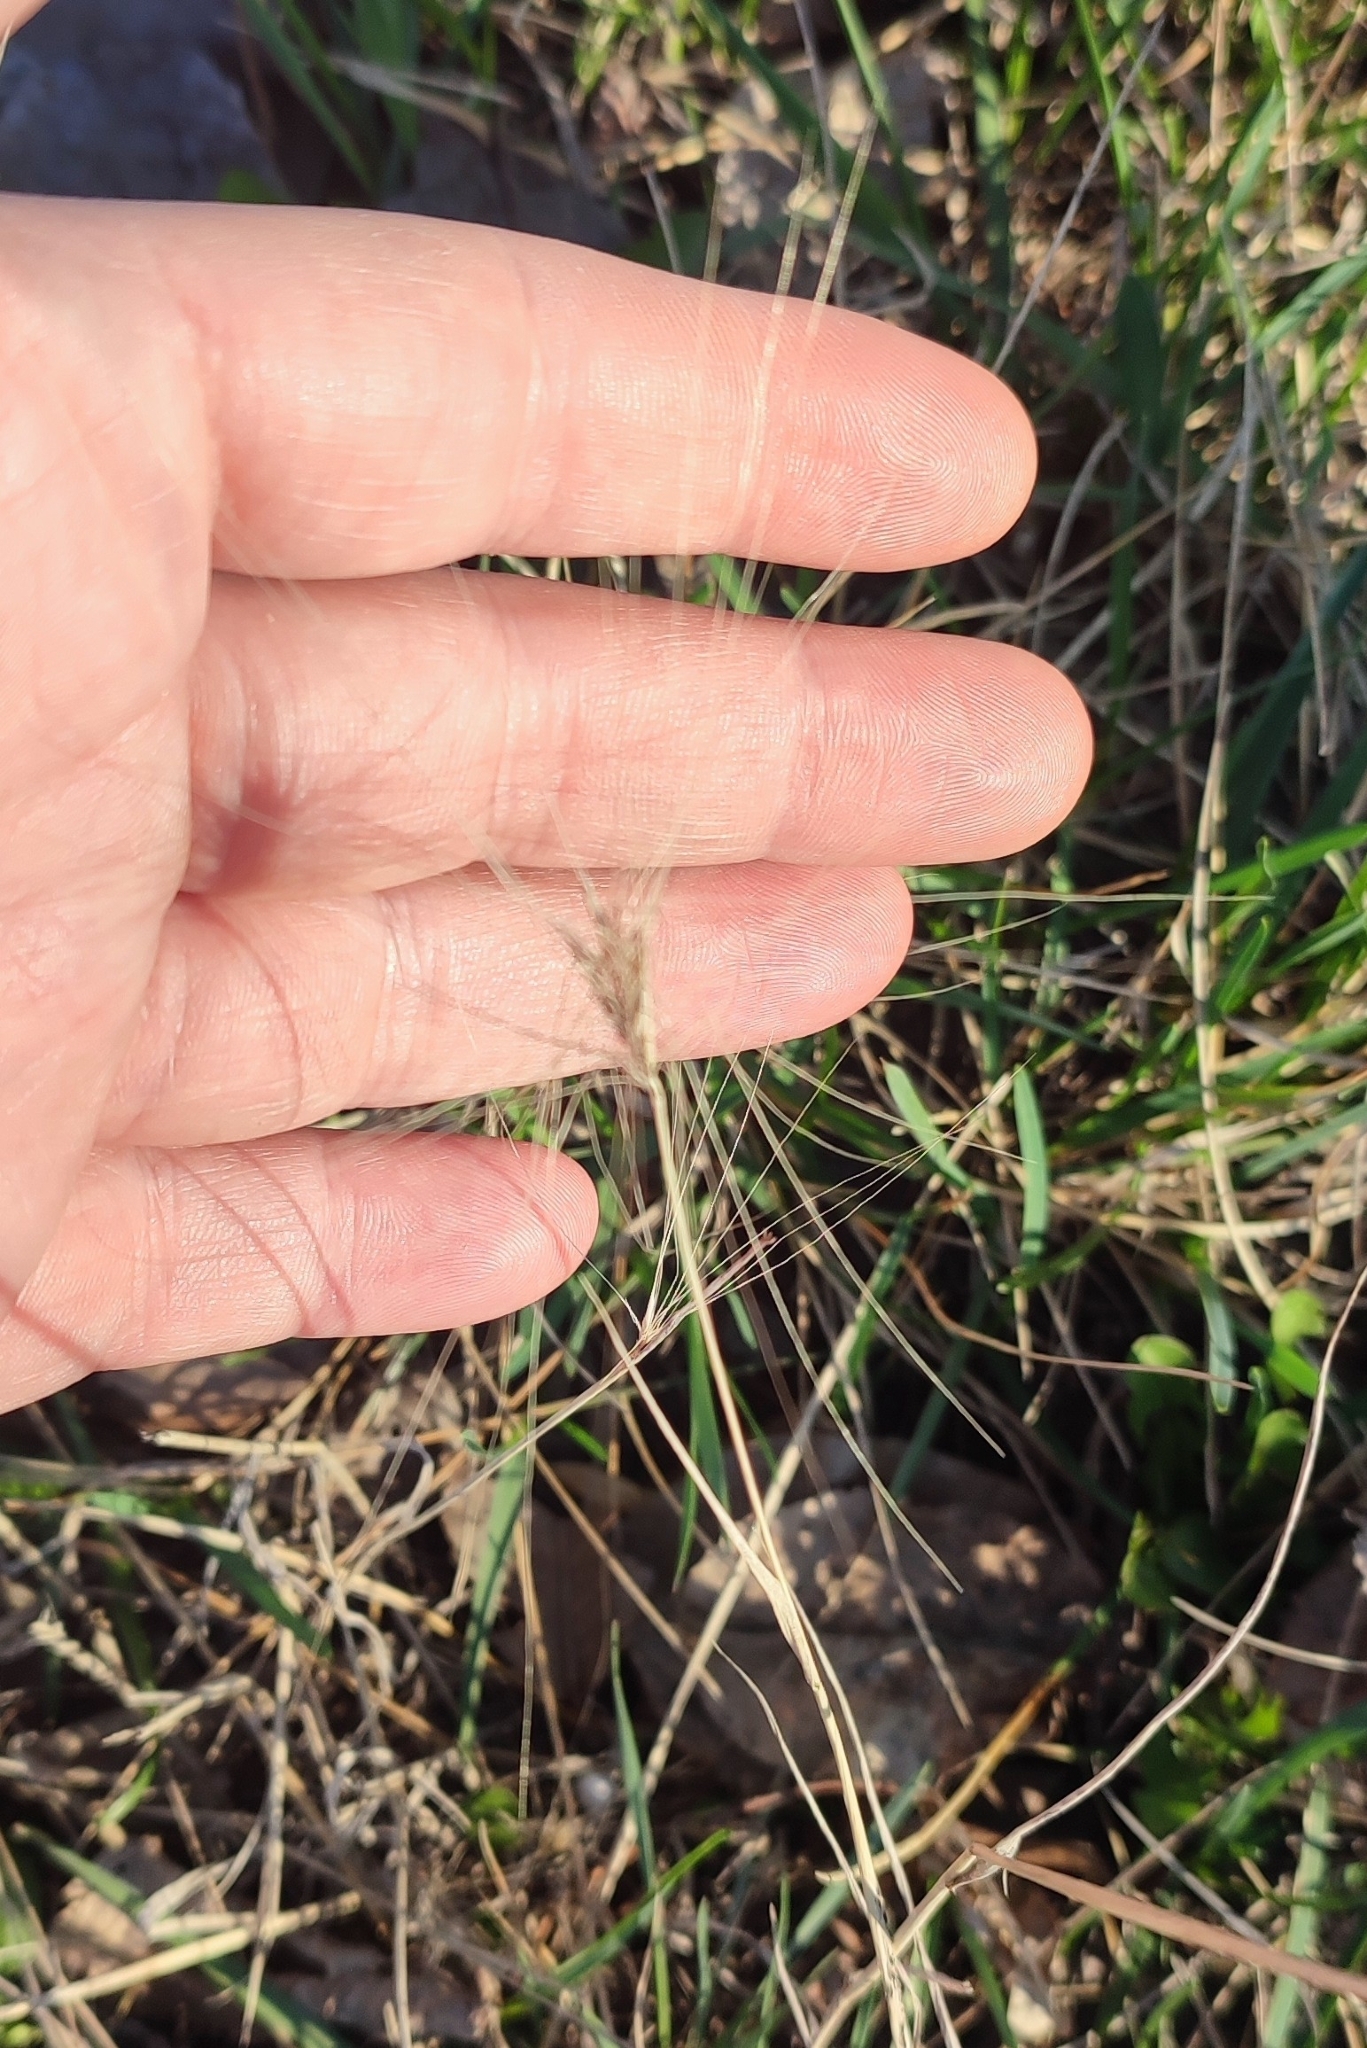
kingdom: Plantae
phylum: Tracheophyta
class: Liliopsida
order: Poales
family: Poaceae
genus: Hordeum
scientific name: Hordeum jubatum
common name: Foxtail barley
